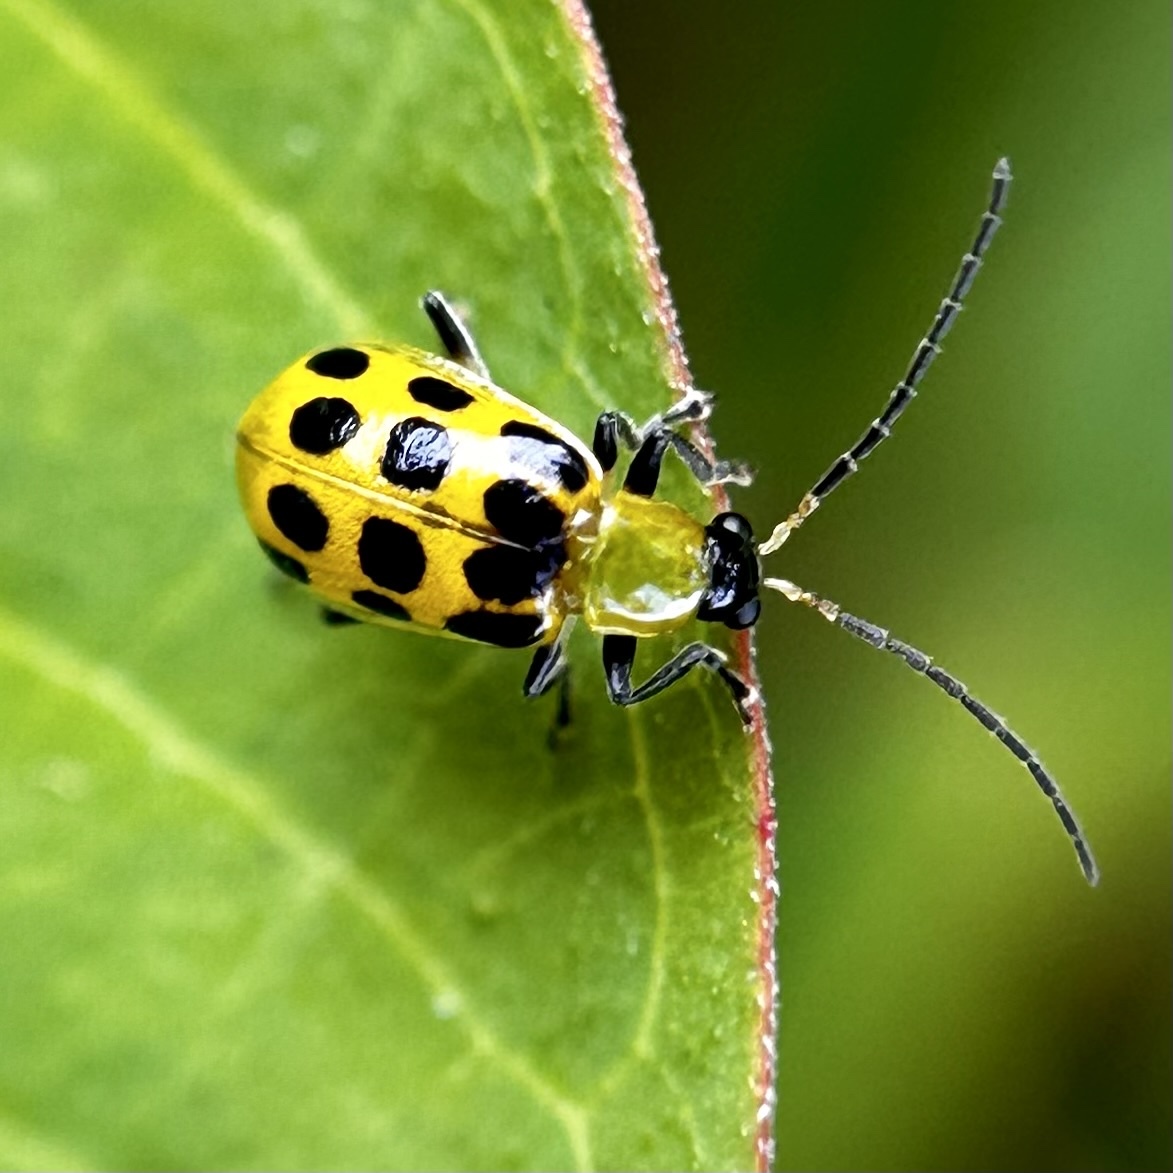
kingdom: Animalia
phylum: Arthropoda
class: Insecta
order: Coleoptera
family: Chrysomelidae
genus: Diabrotica
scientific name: Diabrotica undecimpunctata
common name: Spotted cucumber beetle
